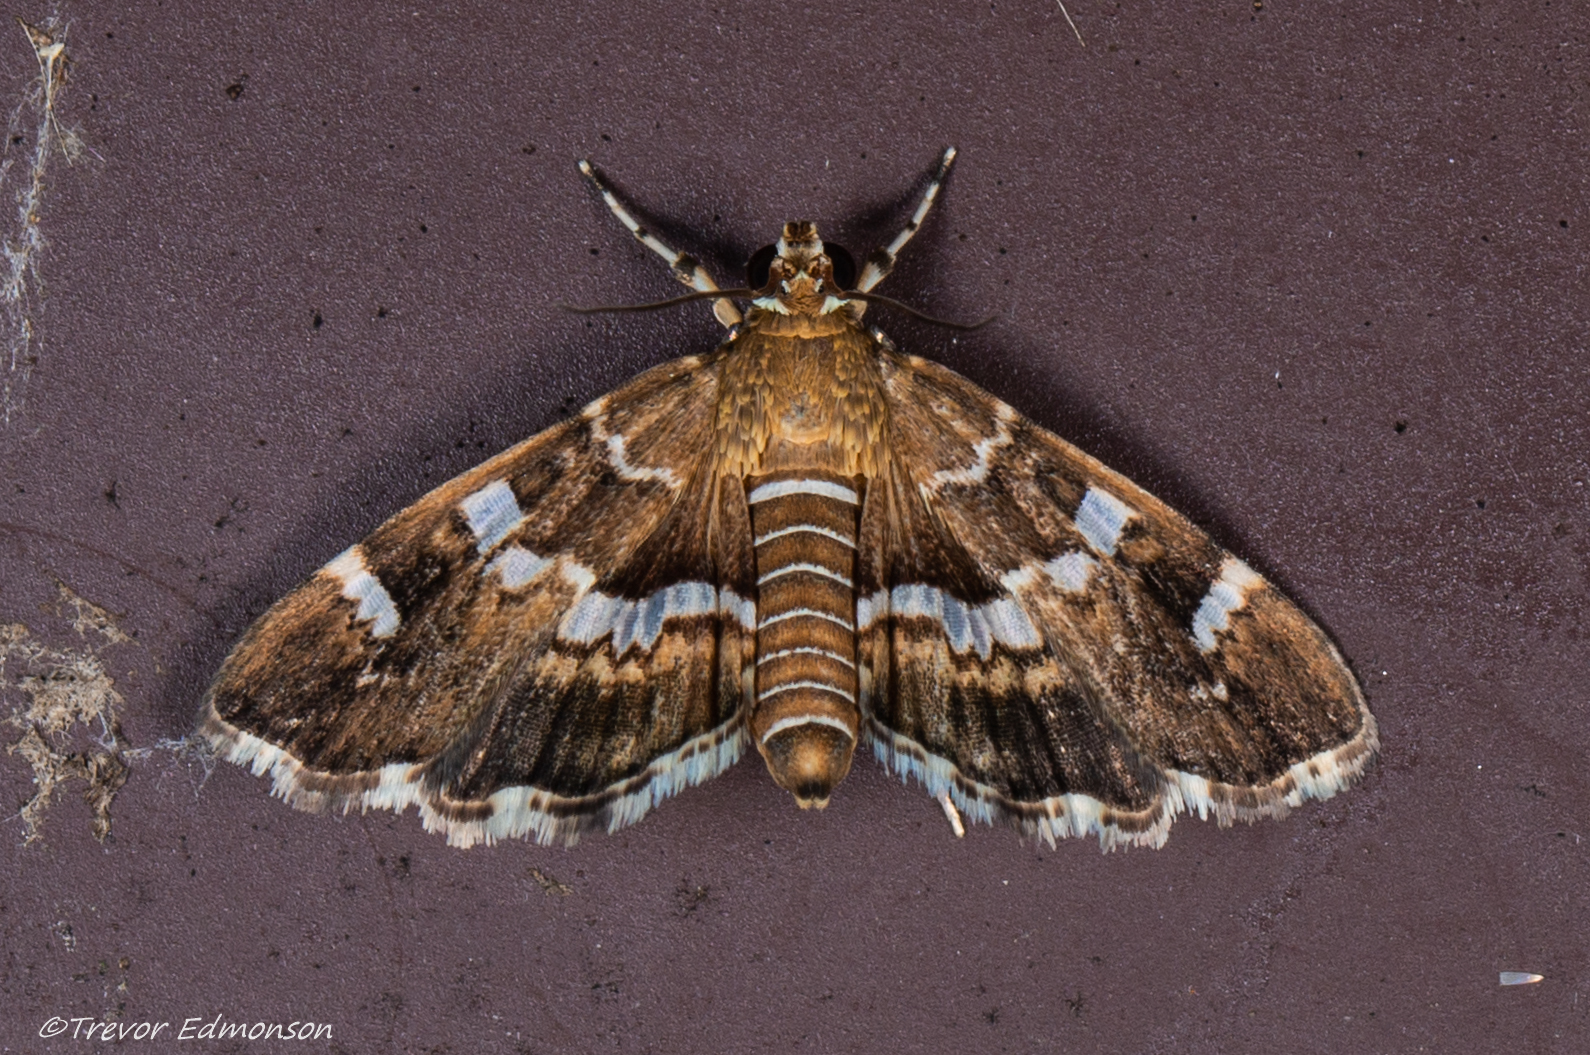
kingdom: Animalia
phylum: Arthropoda
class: Insecta
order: Lepidoptera
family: Crambidae
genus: Hymenia
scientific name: Hymenia perspectalis
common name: Spotted beet webworm
